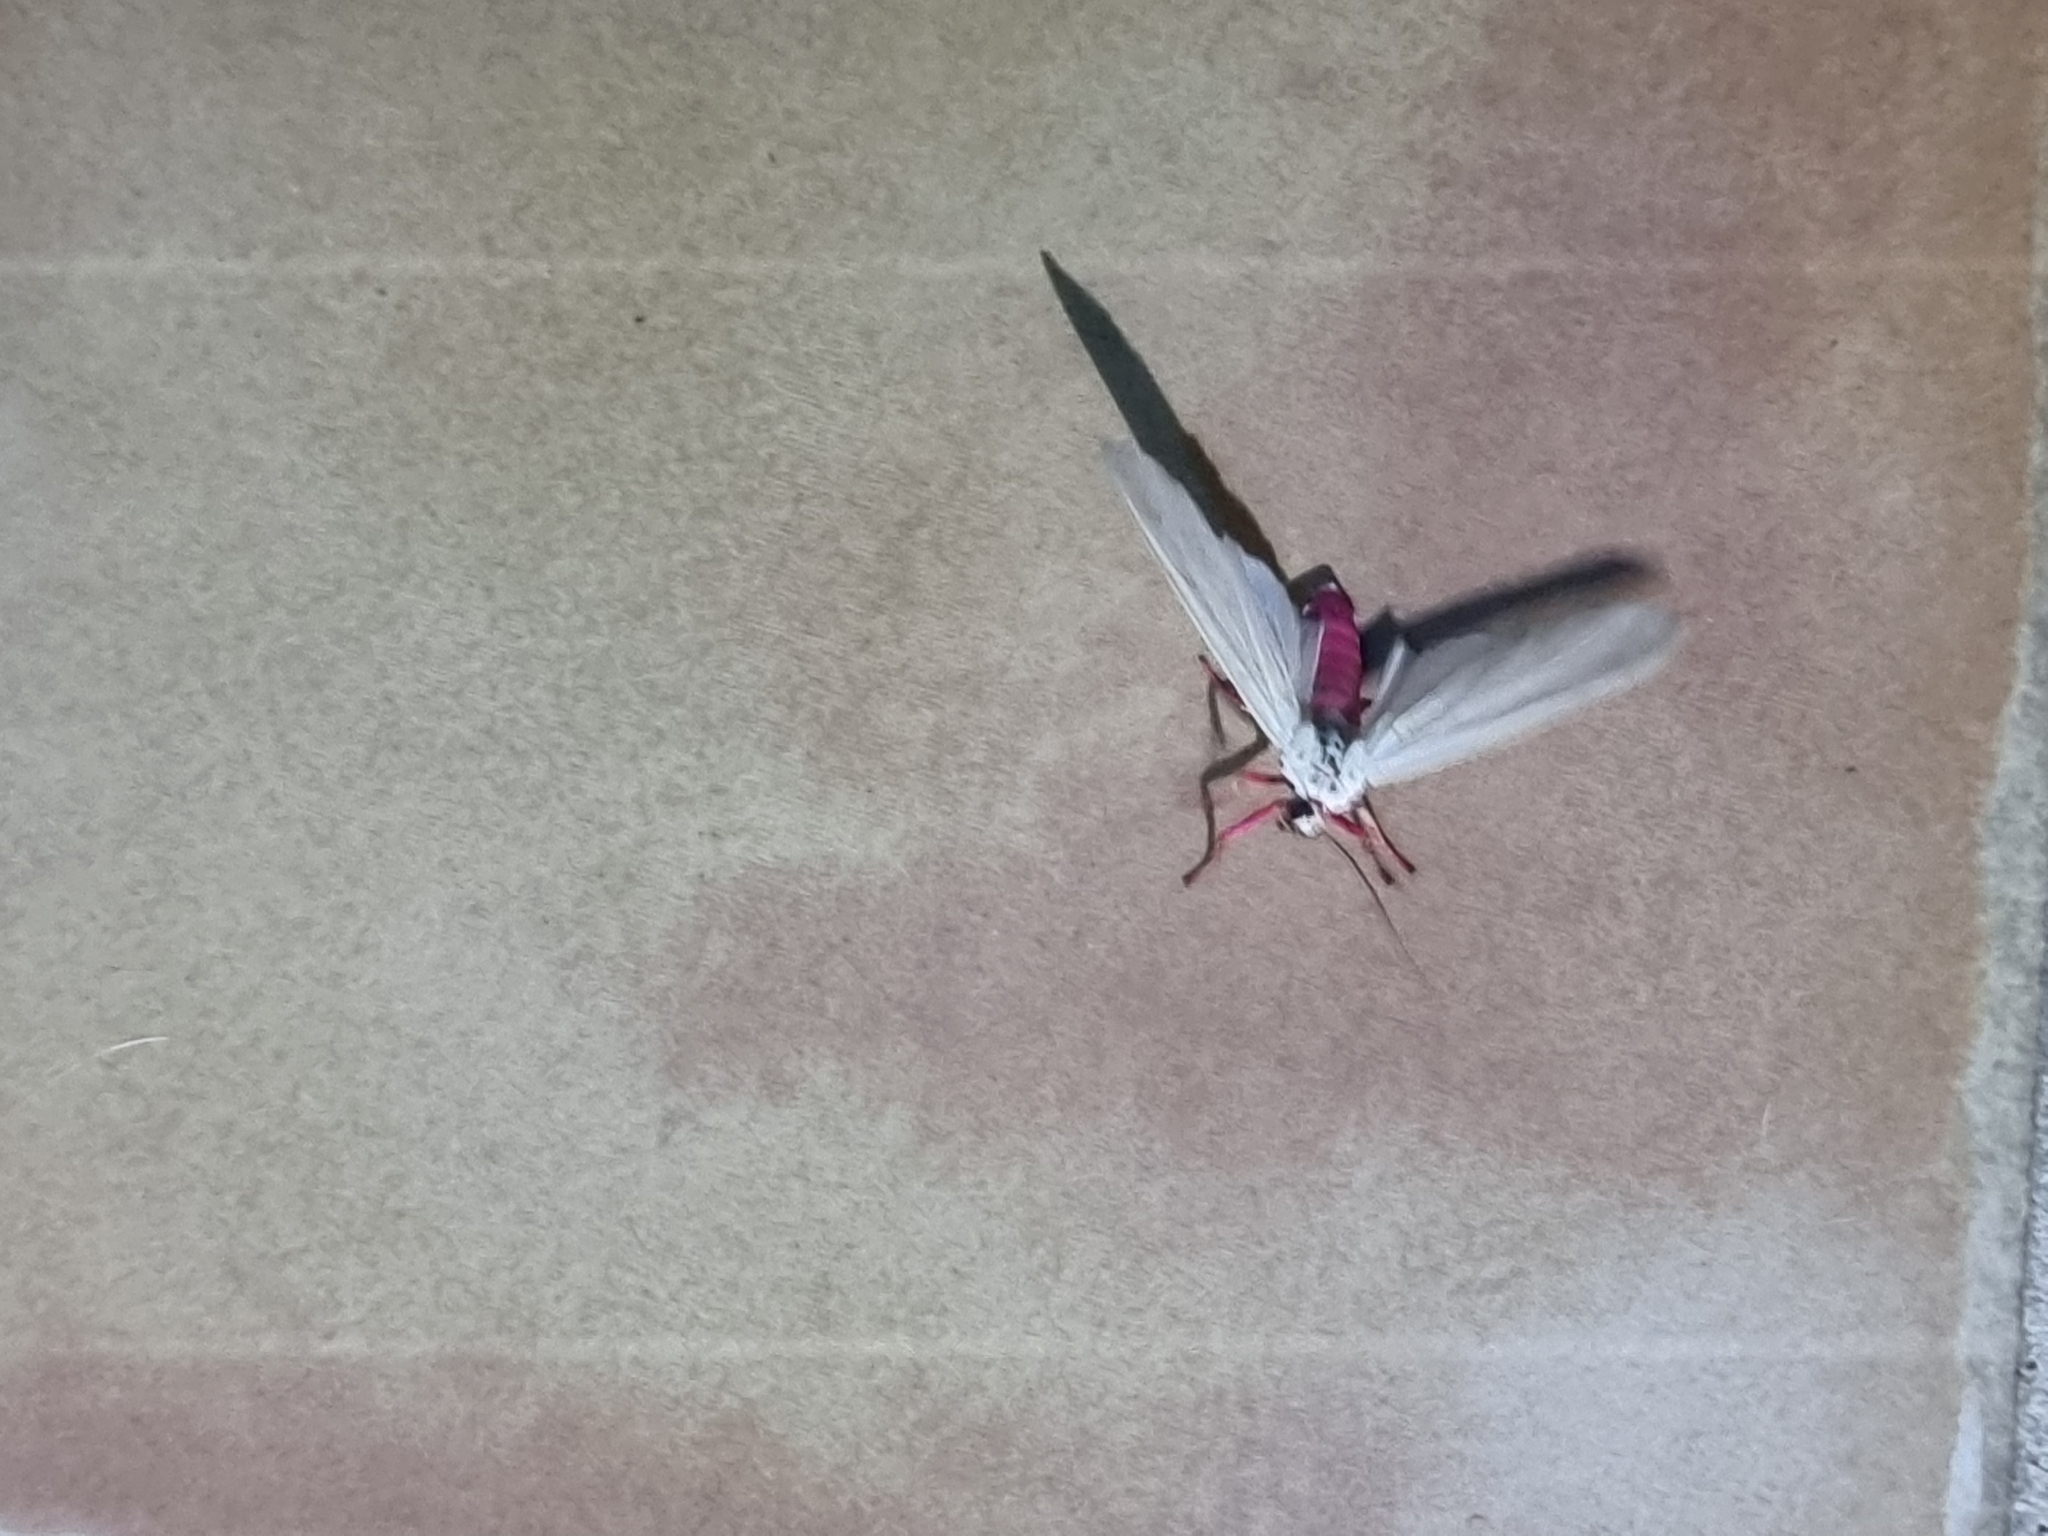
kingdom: Animalia
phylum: Arthropoda
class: Insecta
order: Lepidoptera
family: Erebidae
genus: Amerila
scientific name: Amerila alberti
